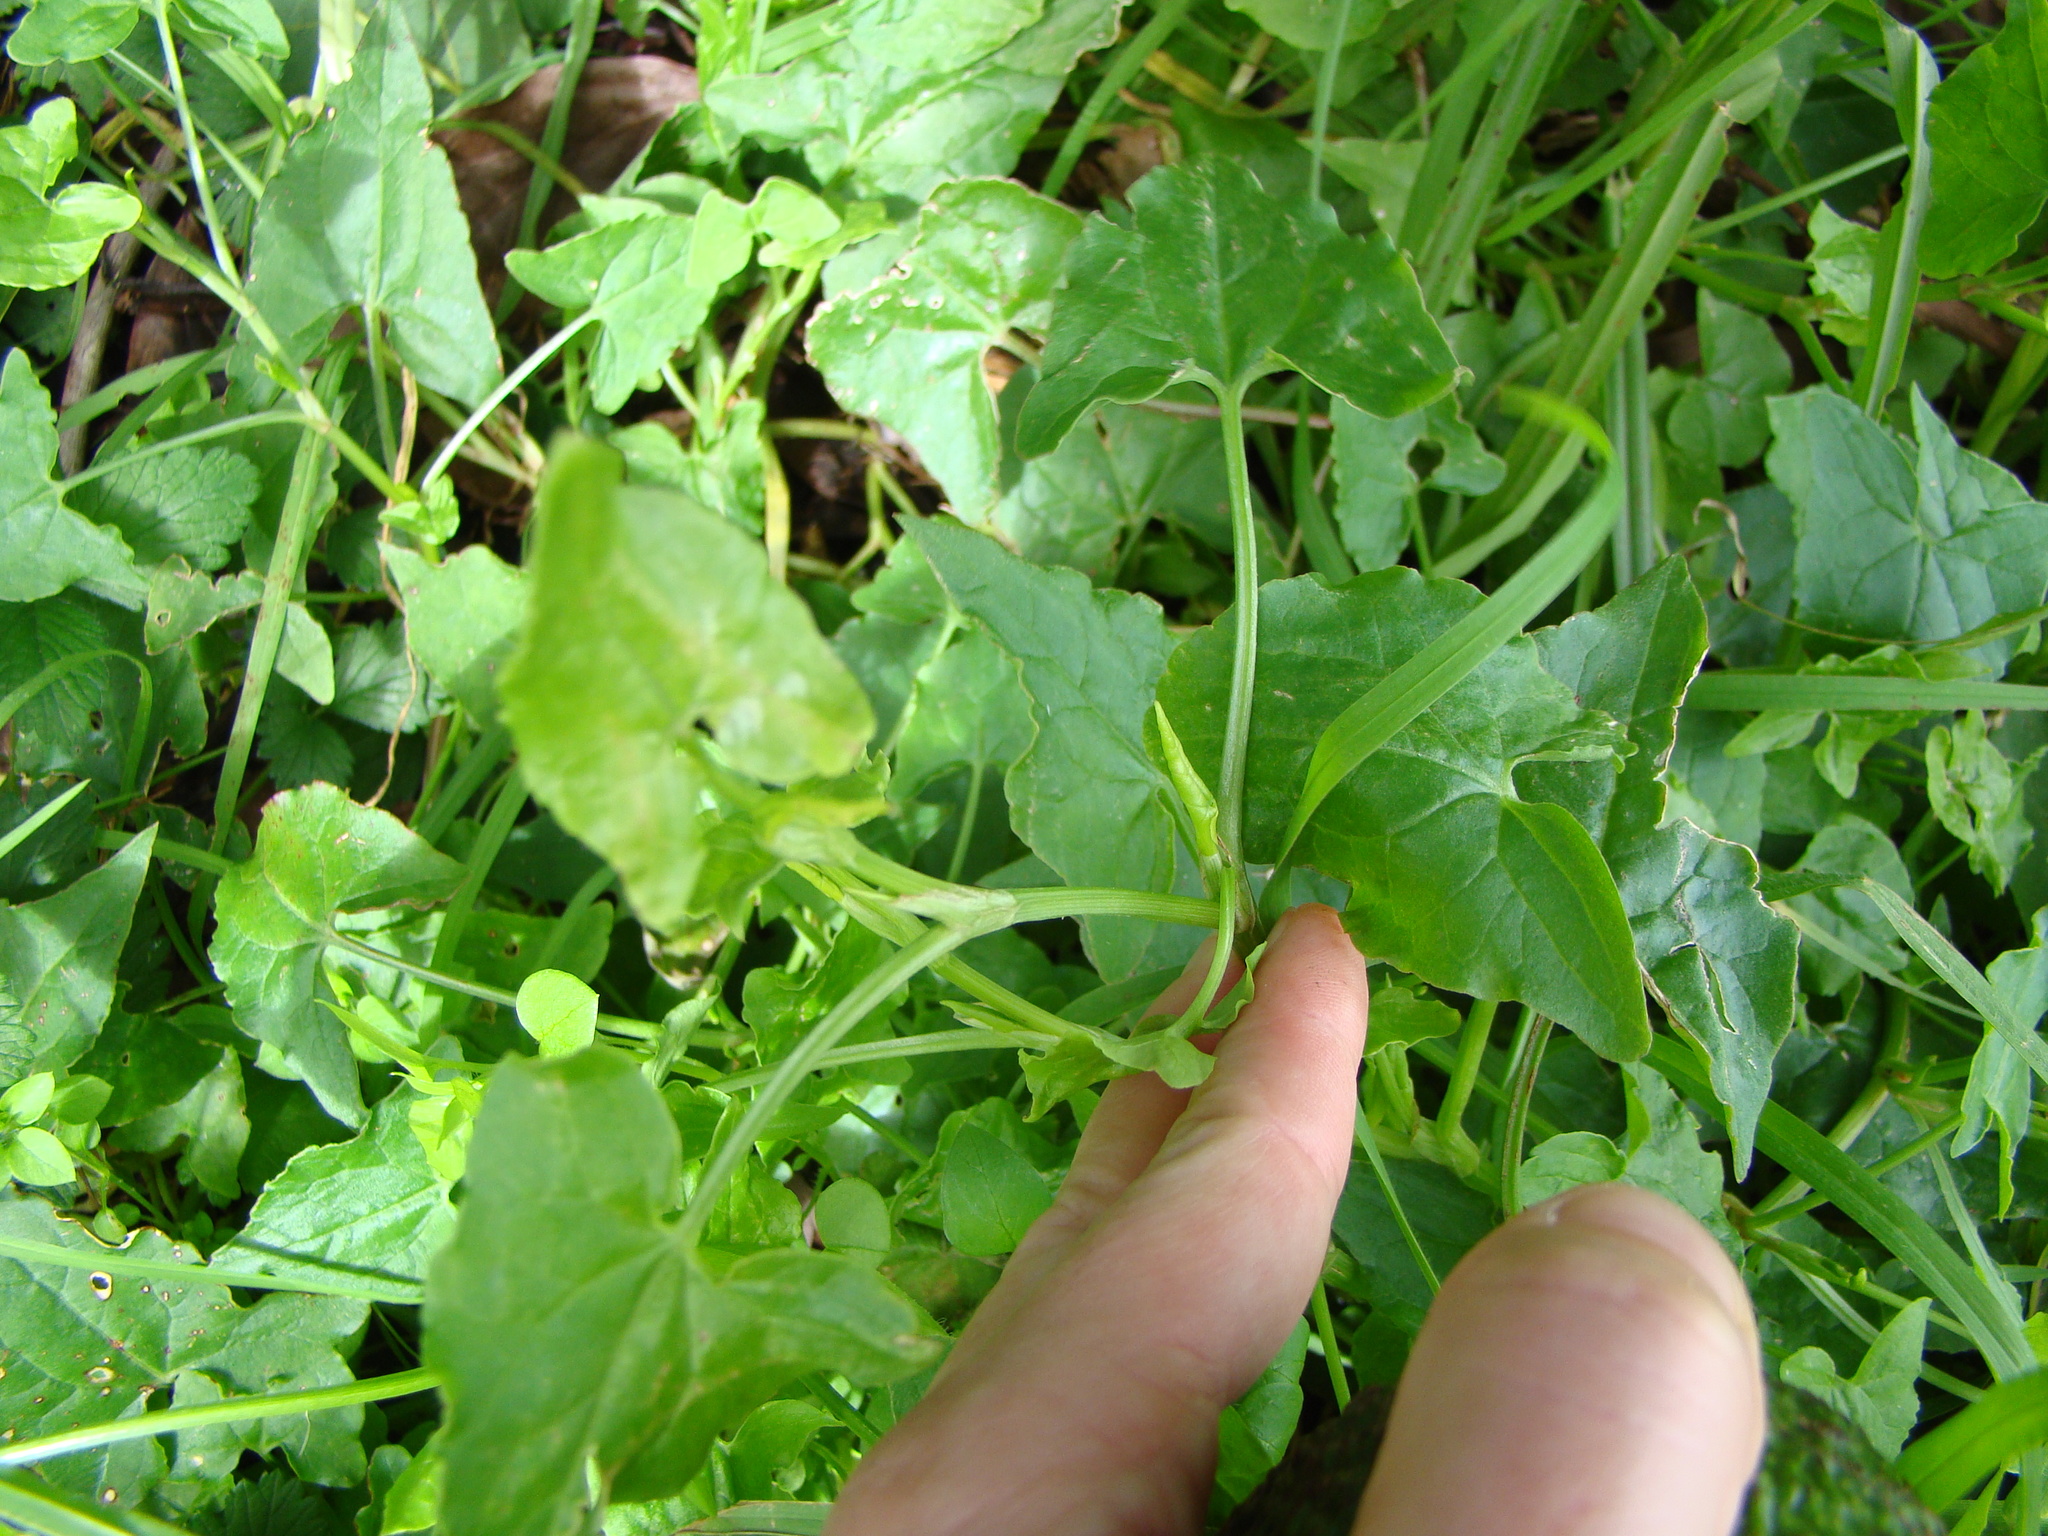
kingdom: Plantae
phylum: Tracheophyta
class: Magnoliopsida
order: Caryophyllales
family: Polygonaceae
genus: Rumex
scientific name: Rumex sagittatus
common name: Climbing dock
